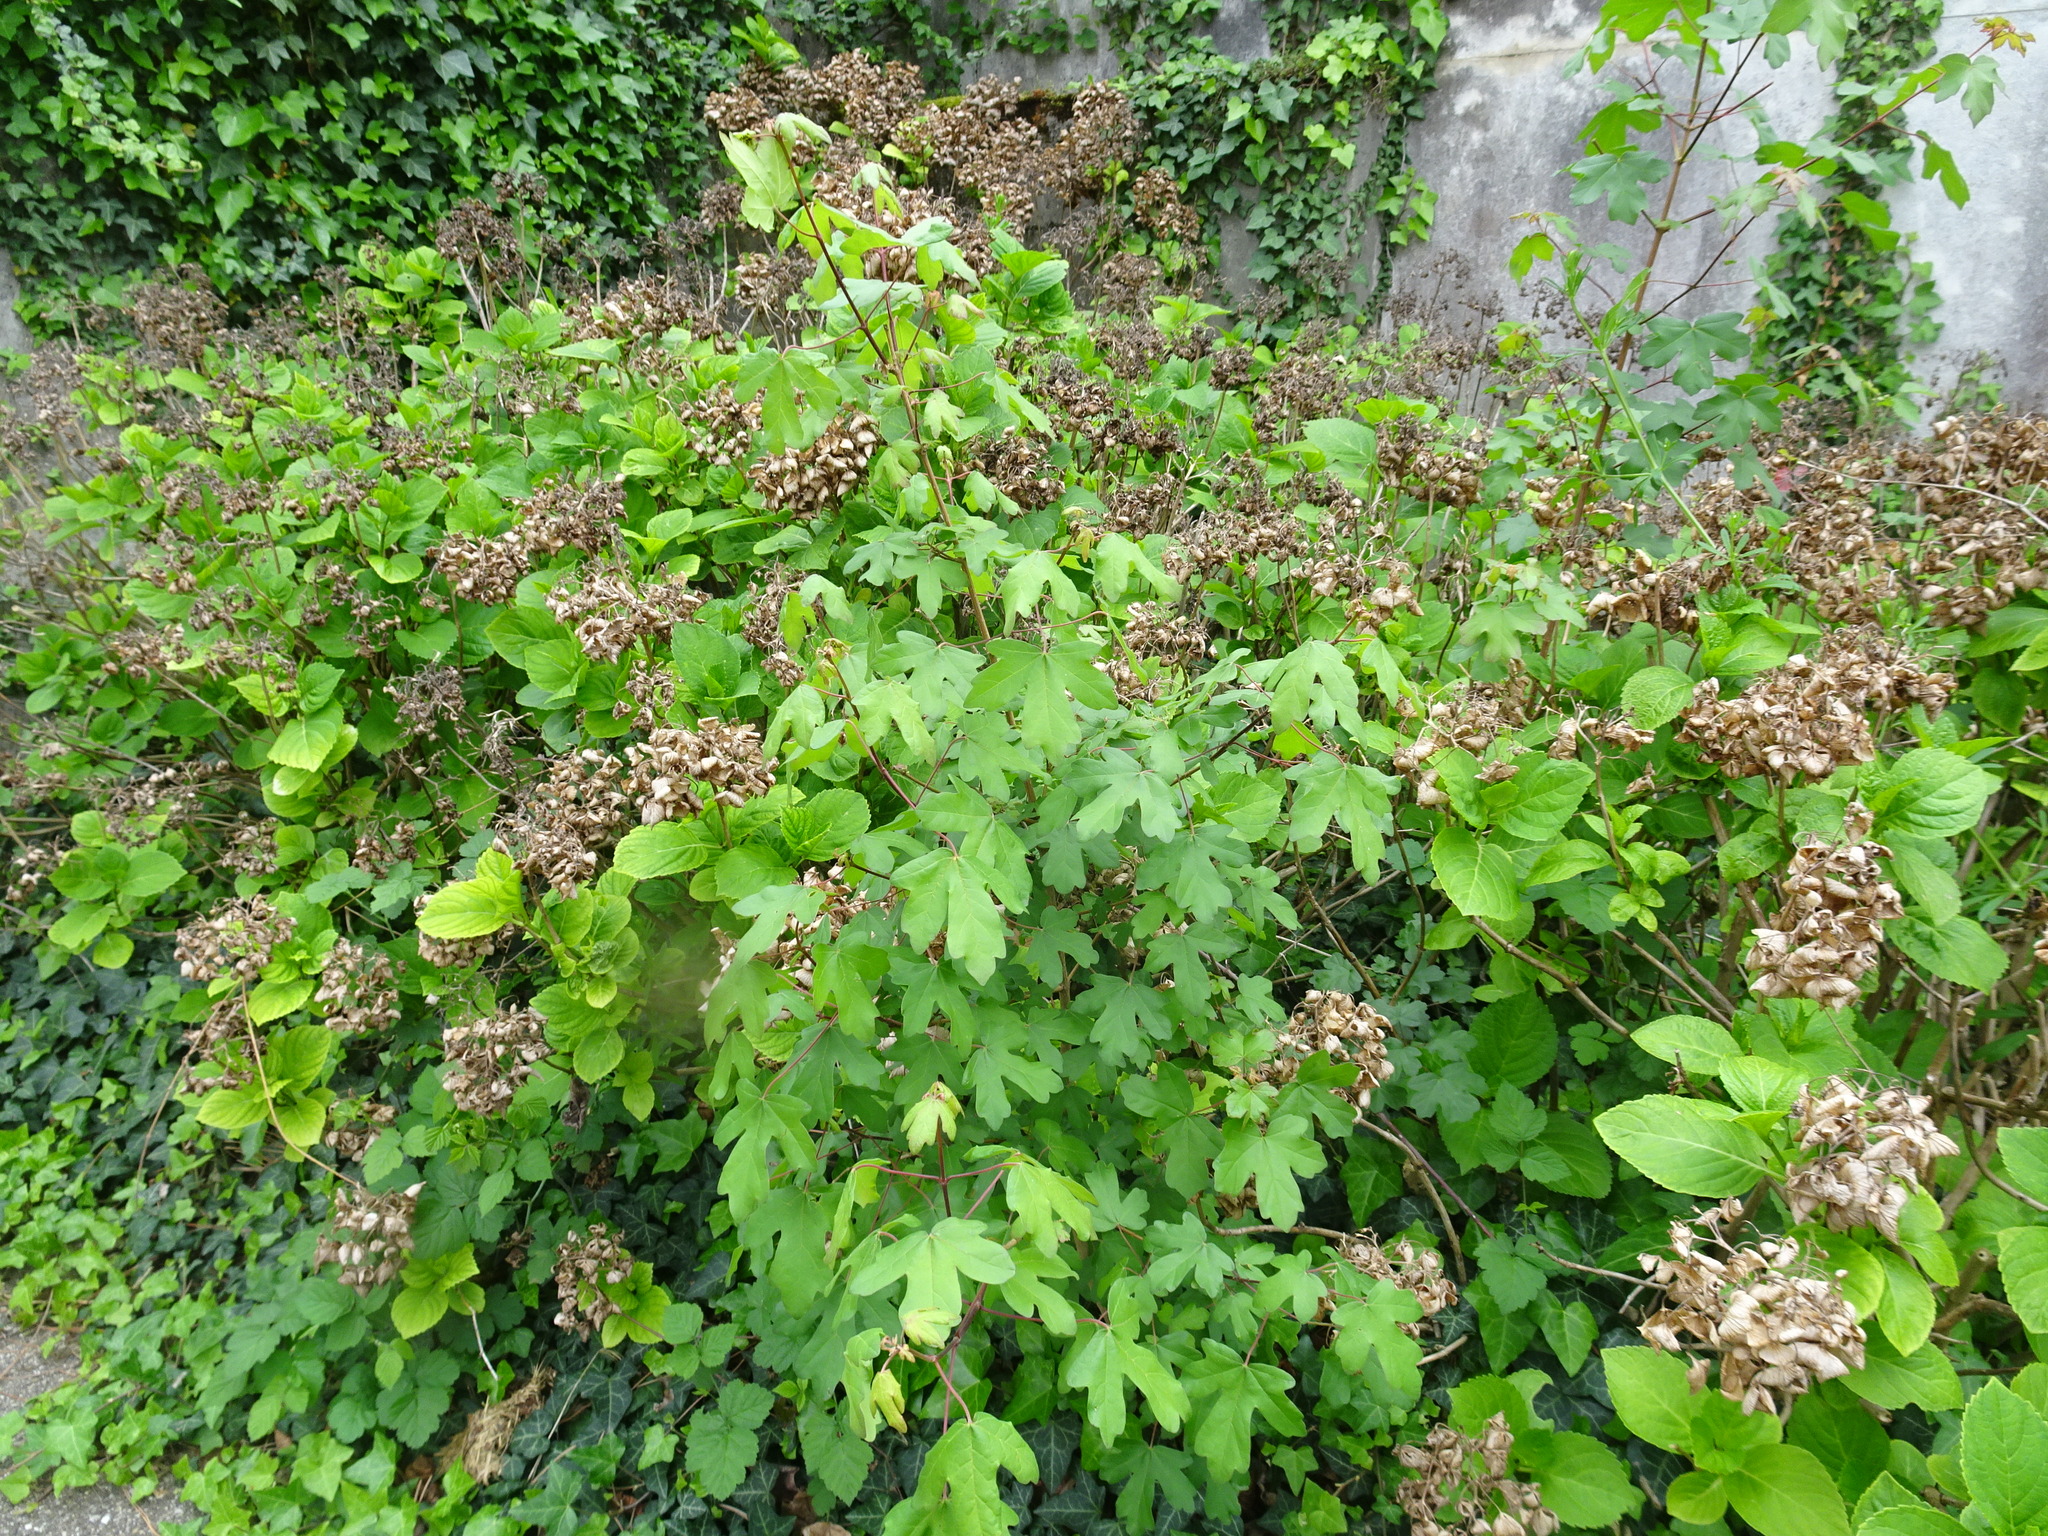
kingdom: Plantae
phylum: Tracheophyta
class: Magnoliopsida
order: Sapindales
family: Sapindaceae
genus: Acer
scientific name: Acer campestre
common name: Field maple
